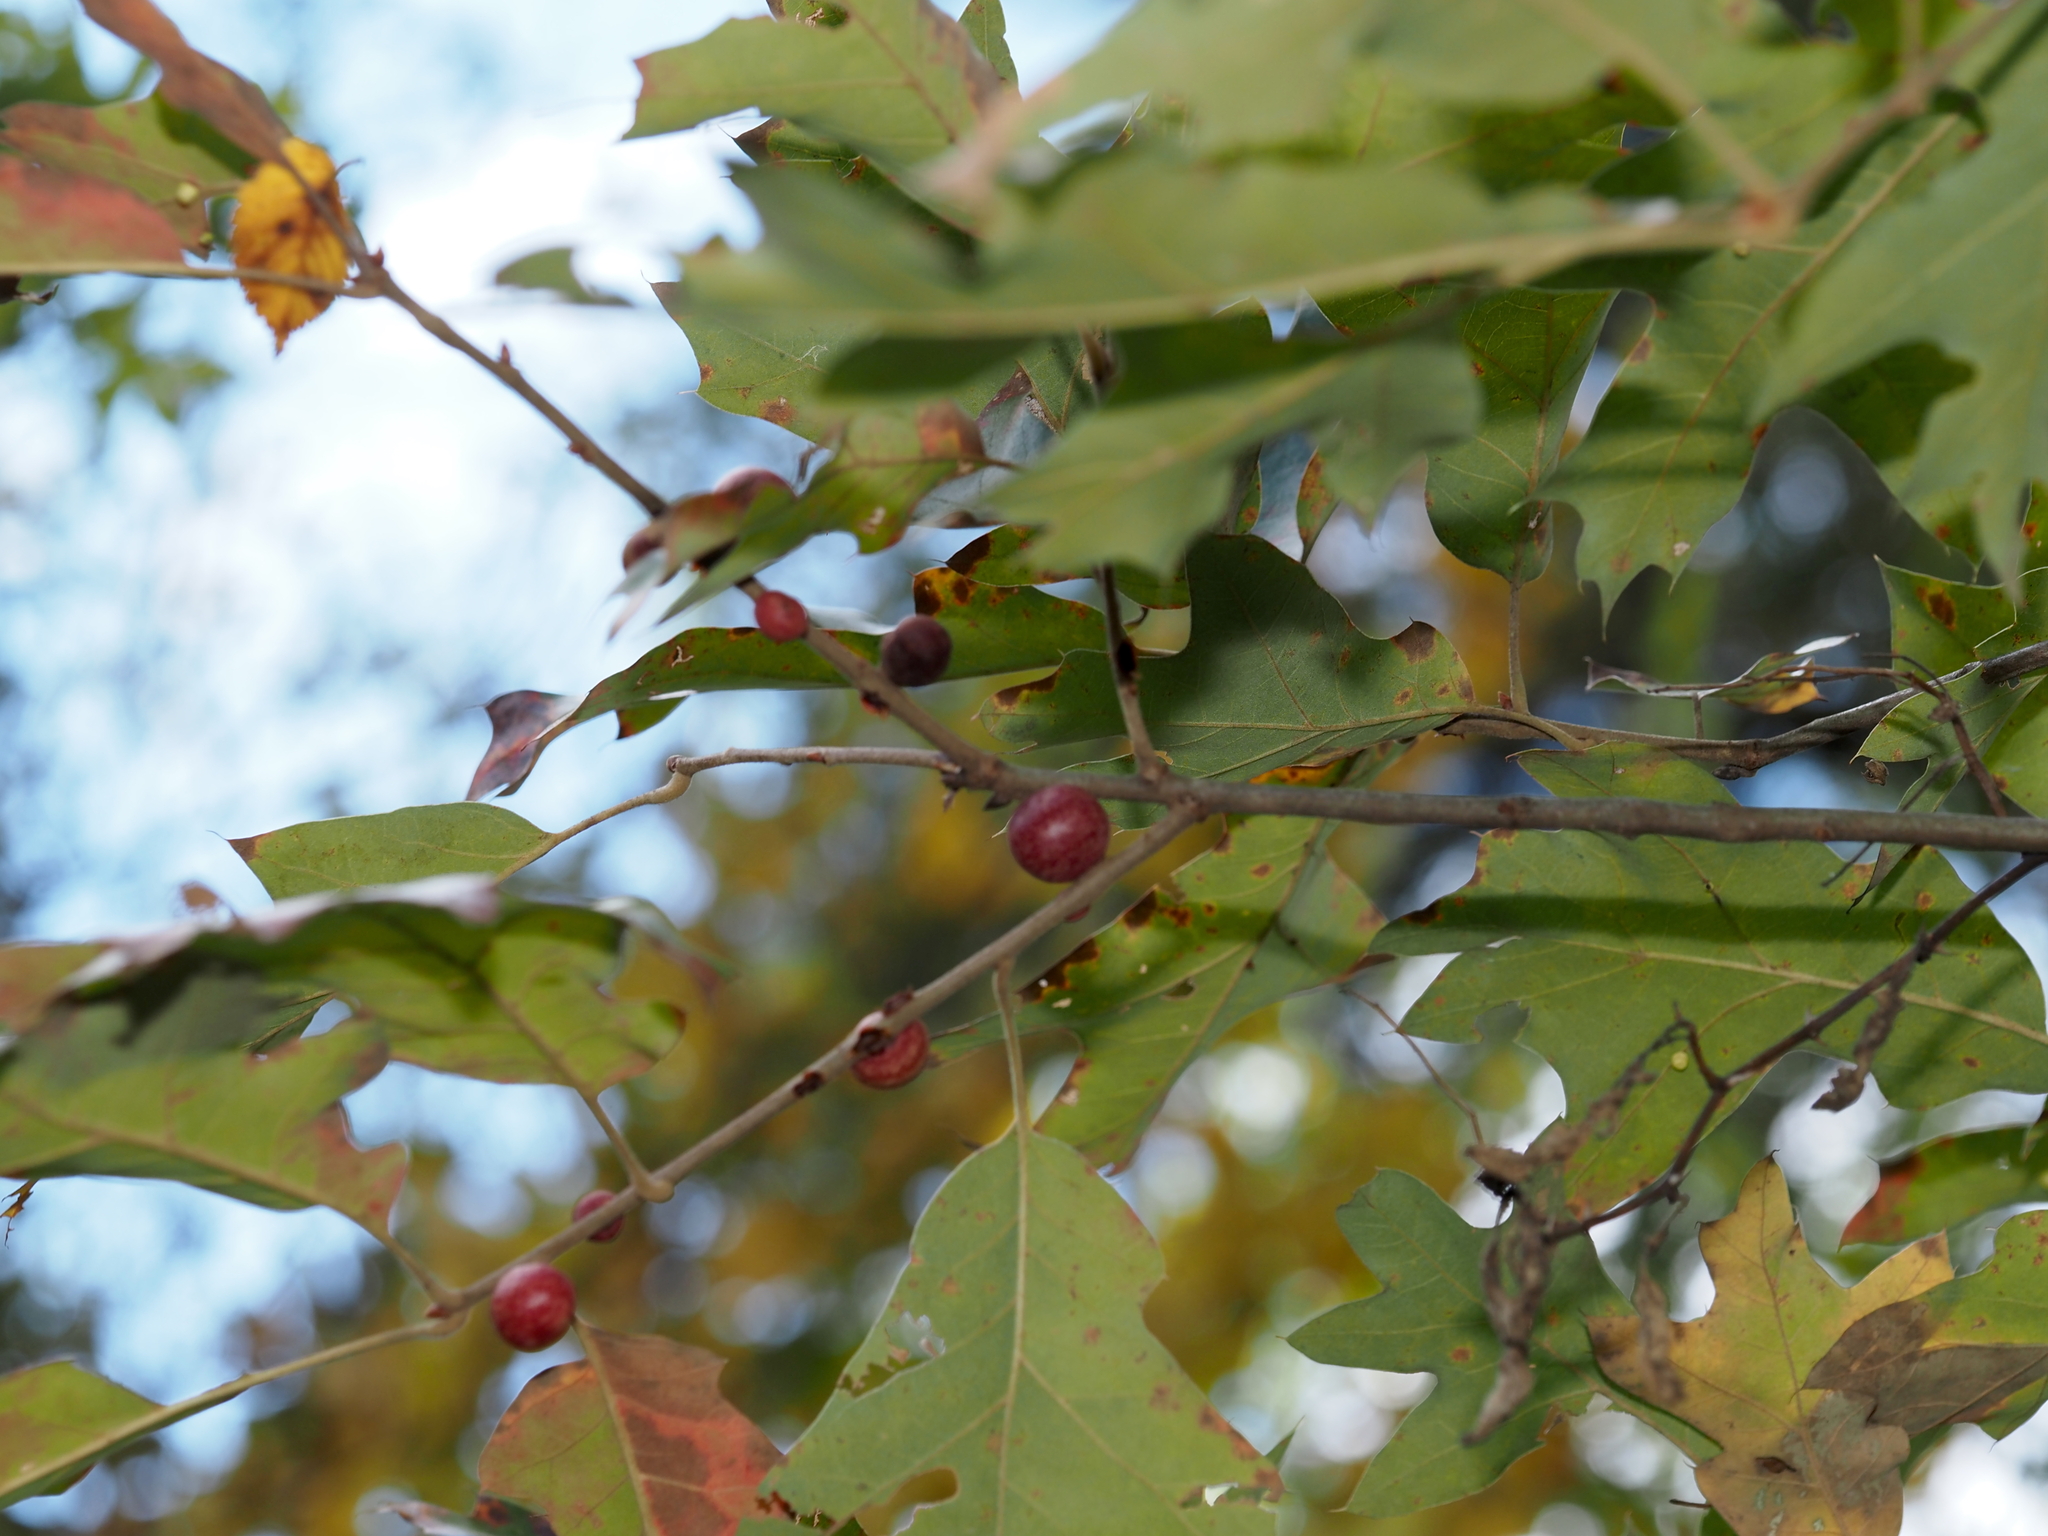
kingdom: Animalia
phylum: Arthropoda
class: Insecta
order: Hymenoptera
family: Cynipidae
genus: Kokkocynips
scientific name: Kokkocynips imbricariae
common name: Banded bullet gall wasp
